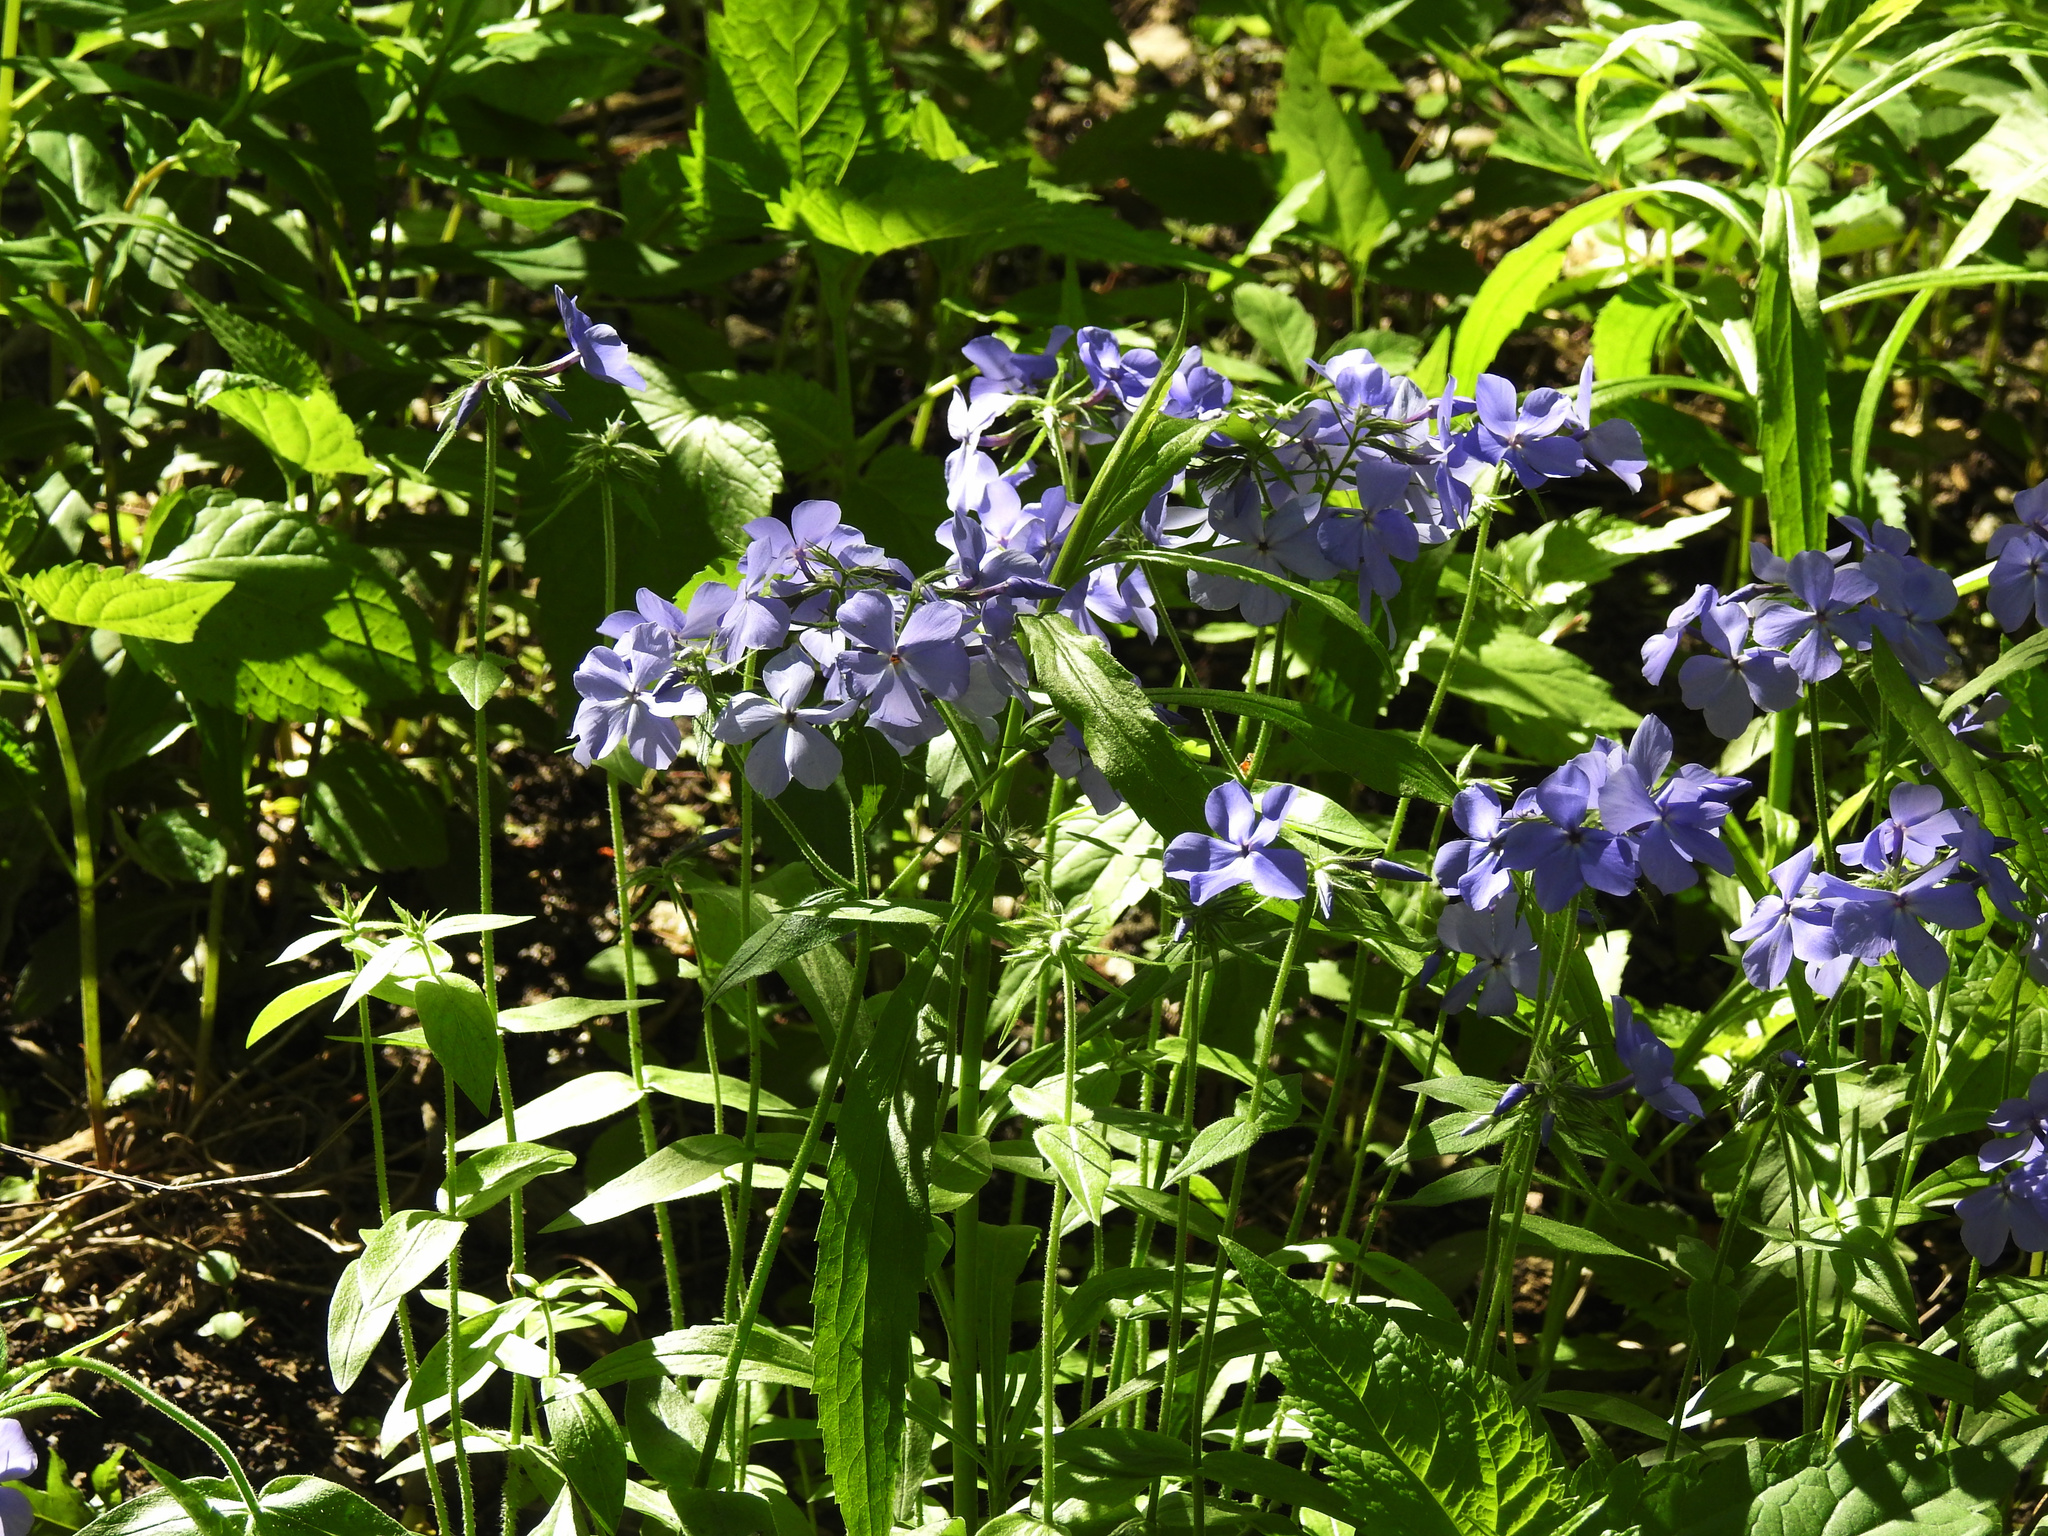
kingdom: Plantae
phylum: Tracheophyta
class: Magnoliopsida
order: Ericales
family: Polemoniaceae
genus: Phlox
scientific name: Phlox divaricata
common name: Blue phlox
